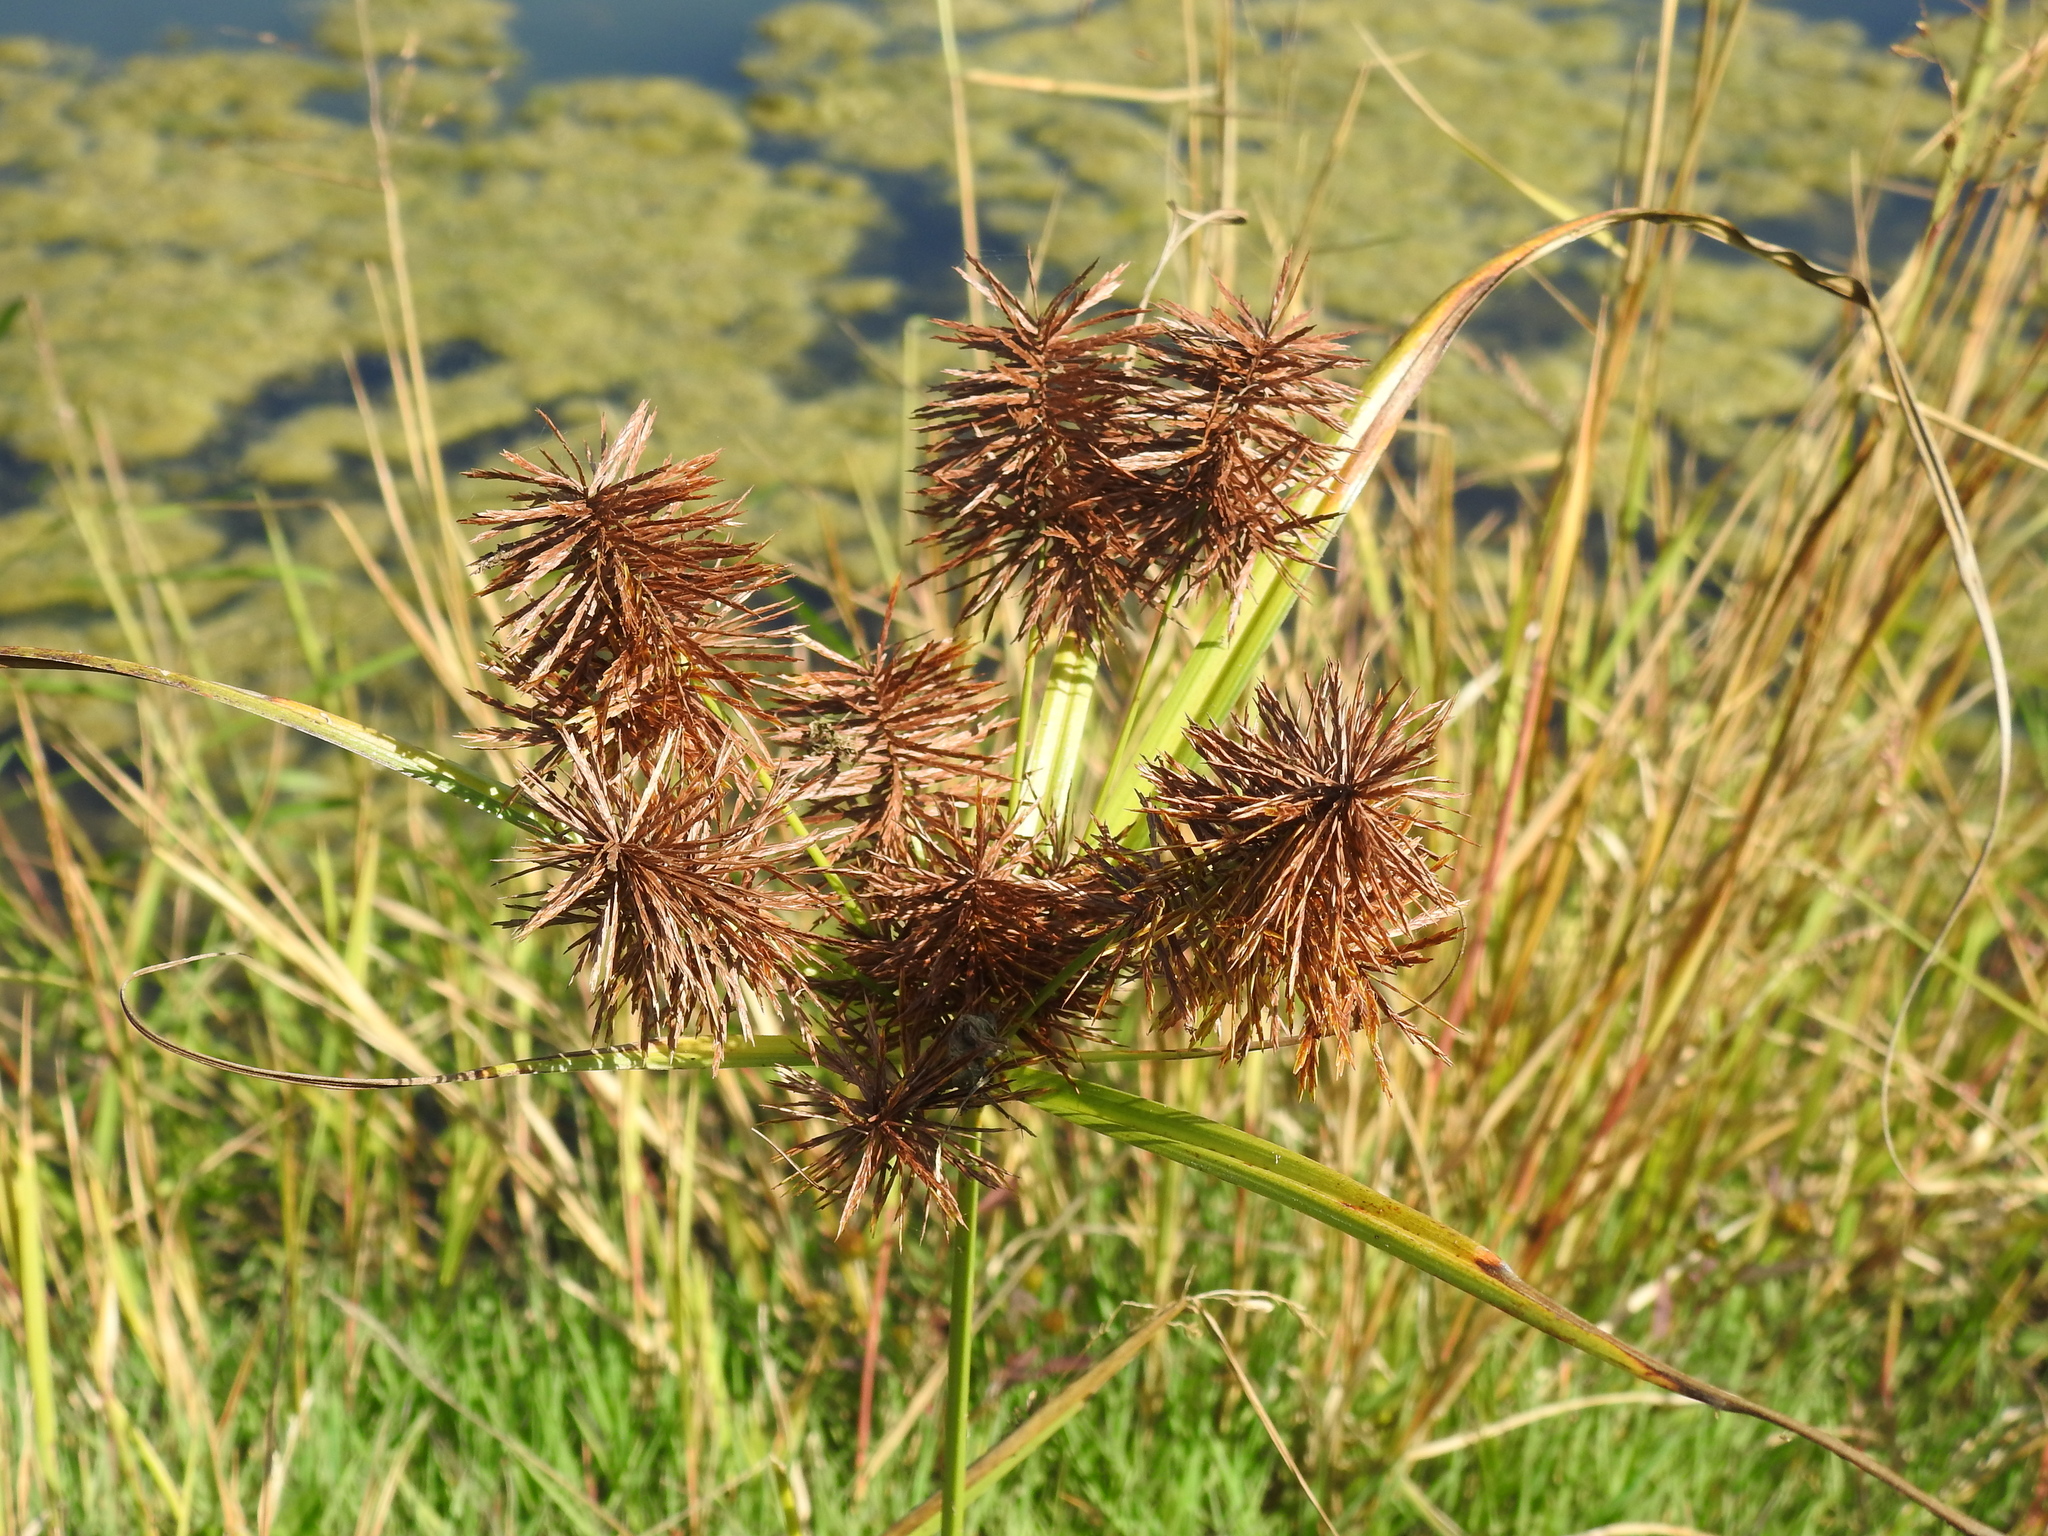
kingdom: Plantae
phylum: Tracheophyta
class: Liliopsida
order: Poales
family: Cyperaceae
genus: Cyperus
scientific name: Cyperus strigosus
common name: False nutsedge
